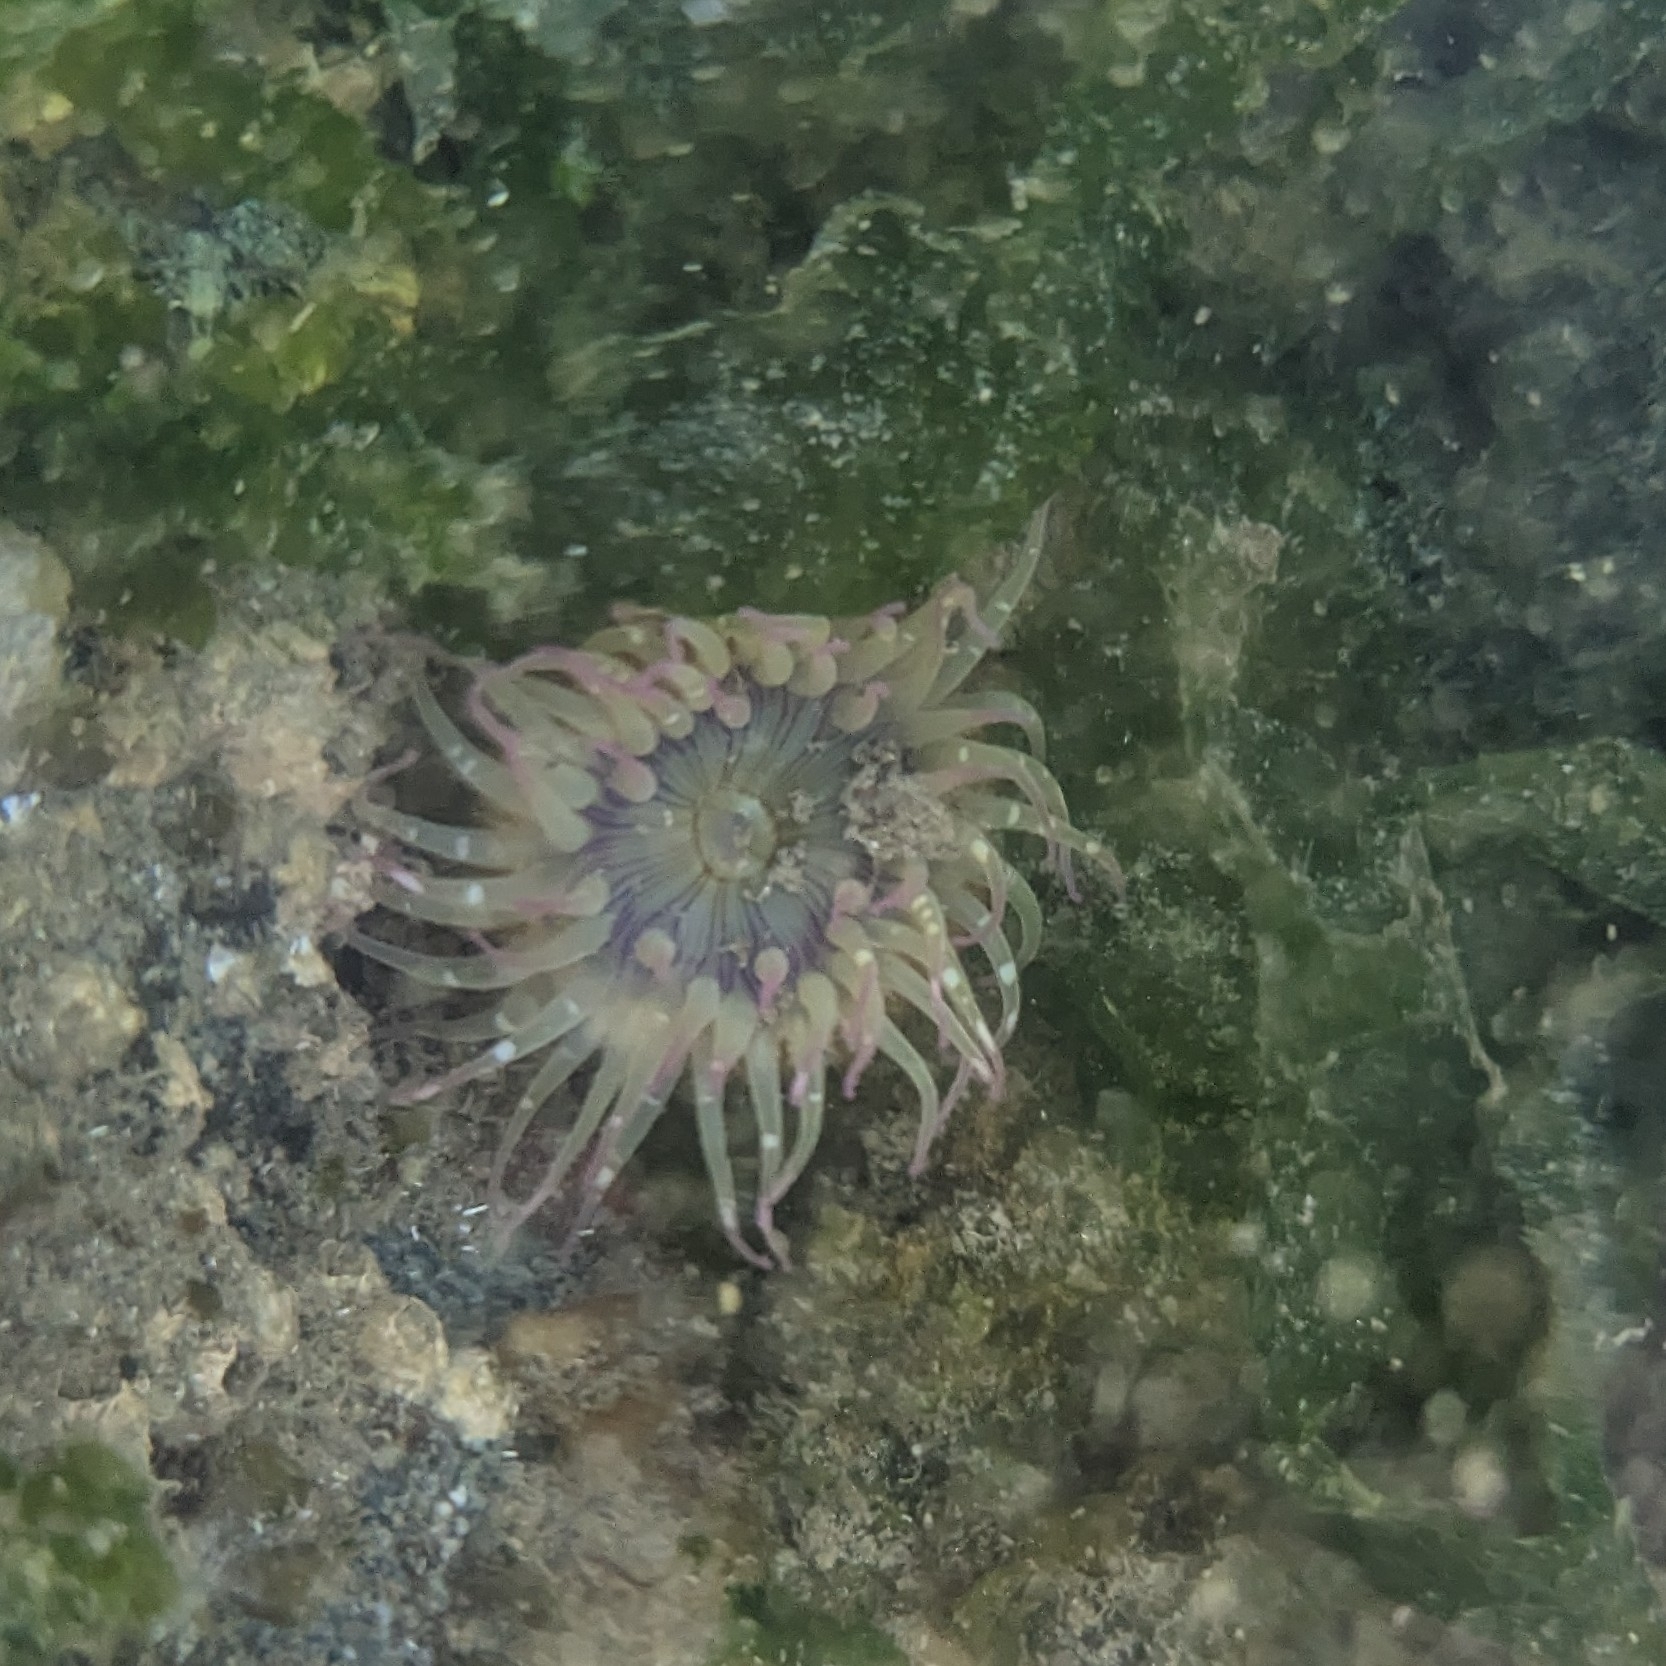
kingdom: Animalia
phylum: Cnidaria
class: Anthozoa
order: Actiniaria
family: Actiniidae
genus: Anthopleura
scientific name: Anthopleura elegantissima
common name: Clonal anemone
